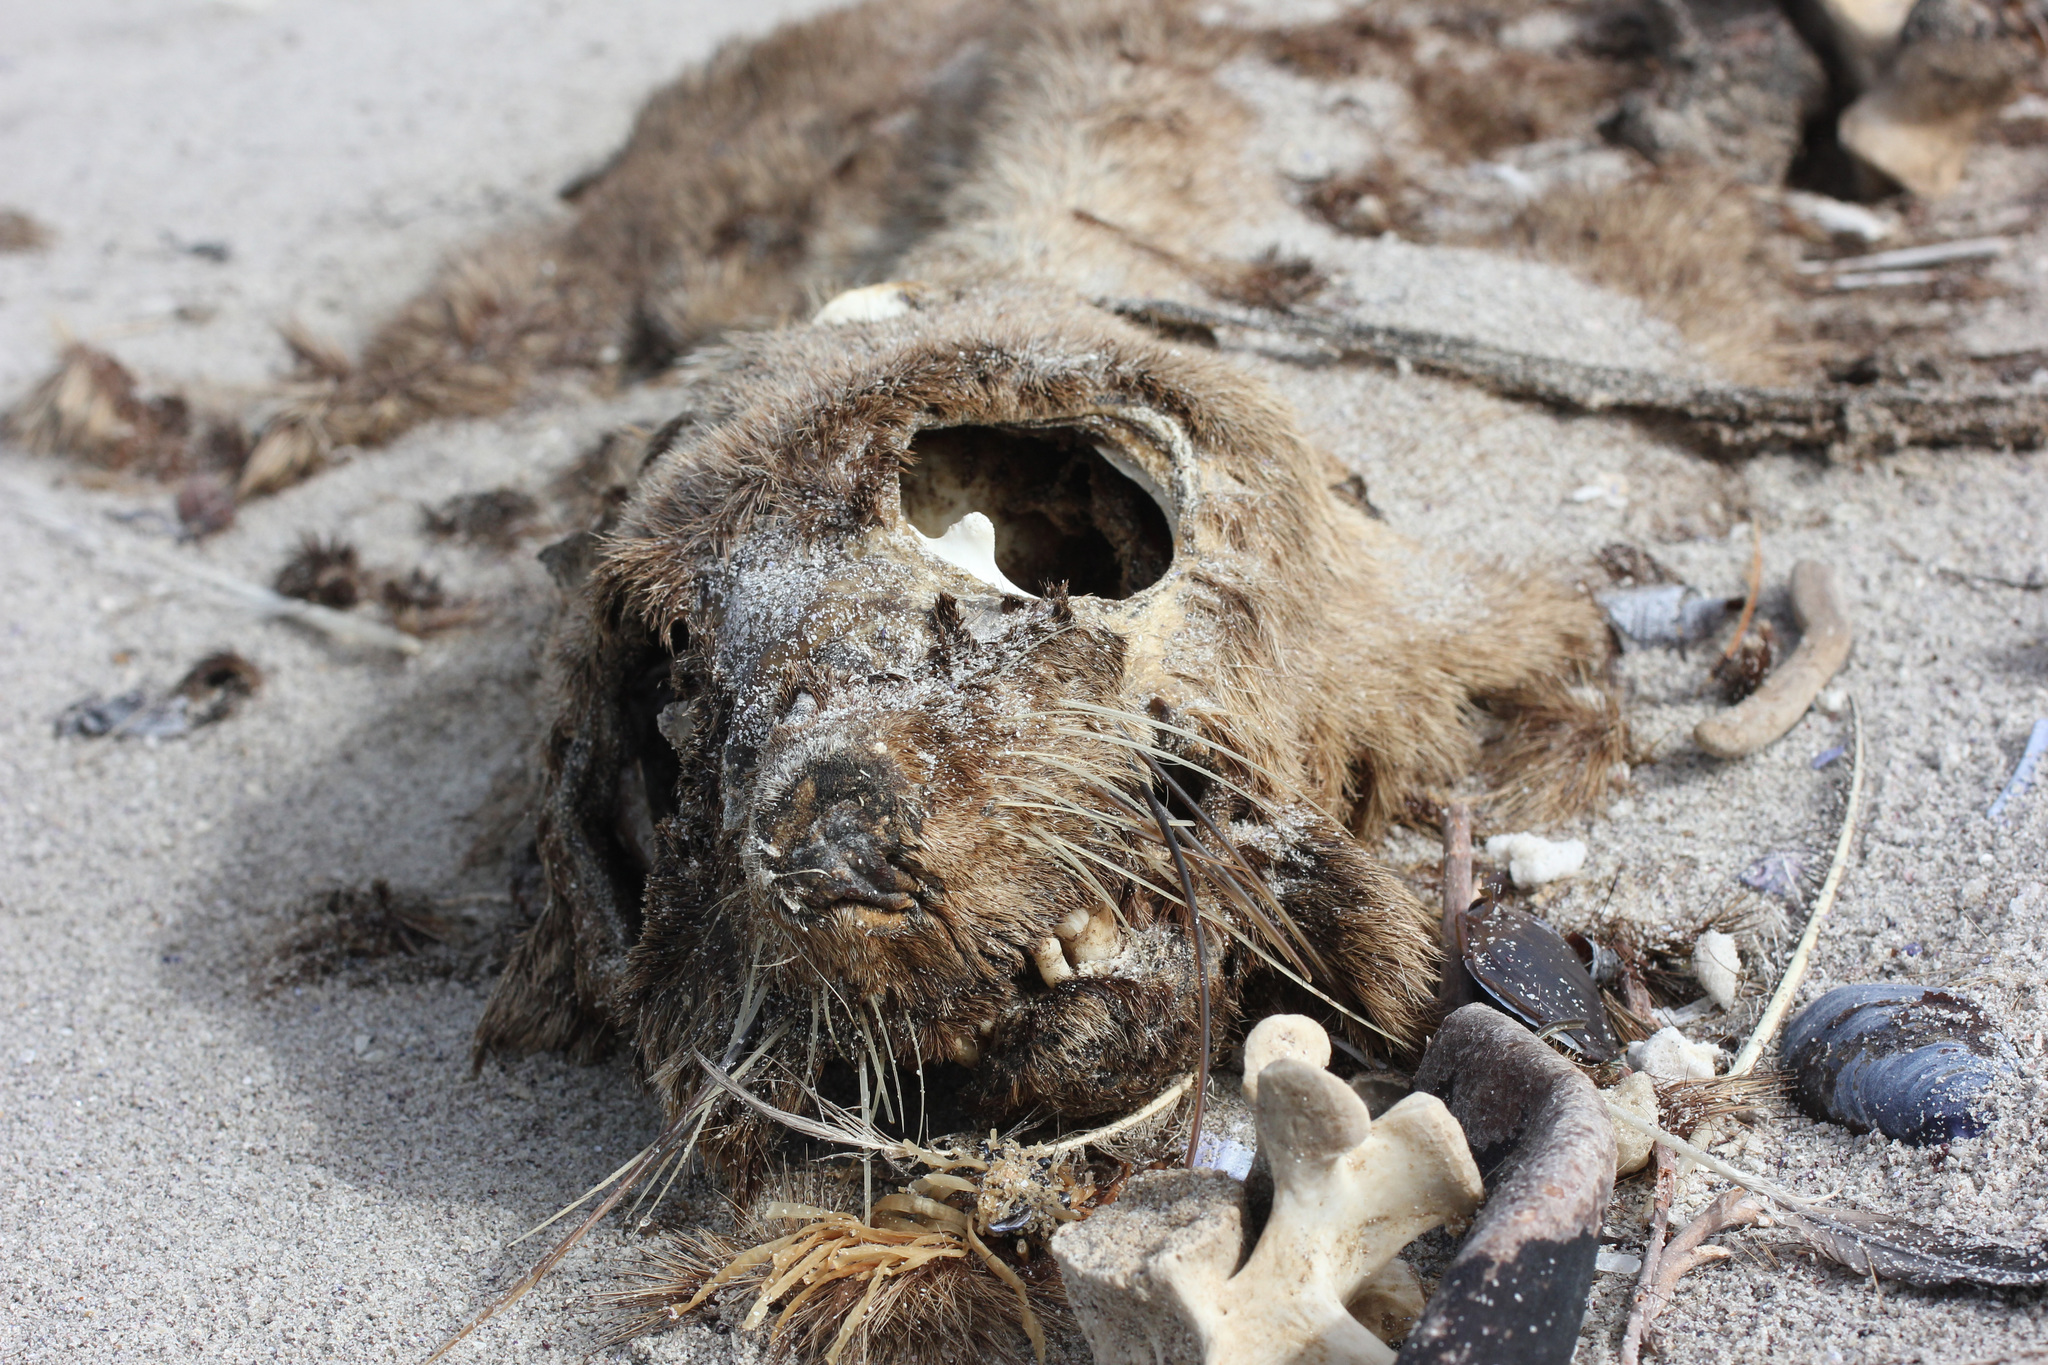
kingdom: Animalia
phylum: Chordata
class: Mammalia
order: Carnivora
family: Otariidae
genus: Arctocephalus
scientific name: Arctocephalus pusillus
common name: Brown fur seal
